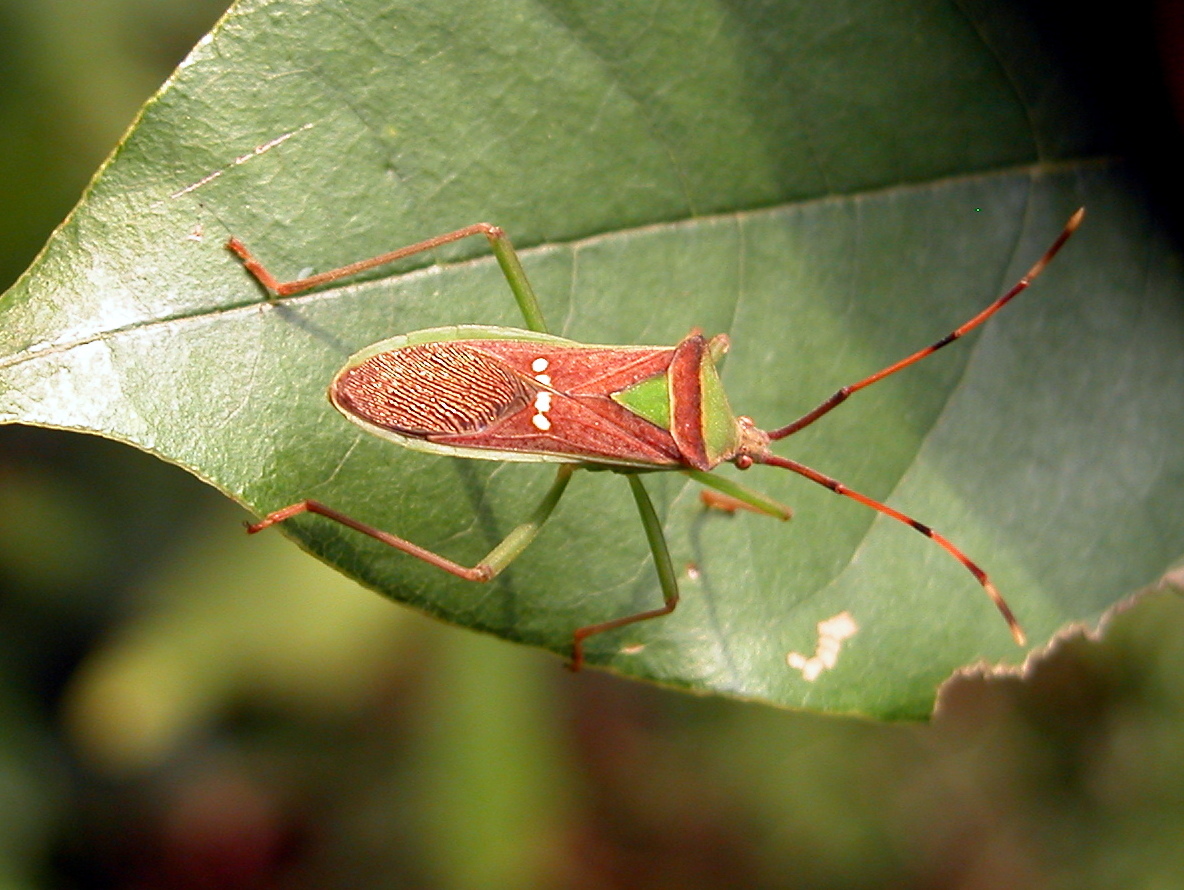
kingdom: Animalia
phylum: Arthropoda
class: Insecta
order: Hemiptera
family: Coreidae
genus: Homoeocerus
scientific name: Homoeocerus walkeri
